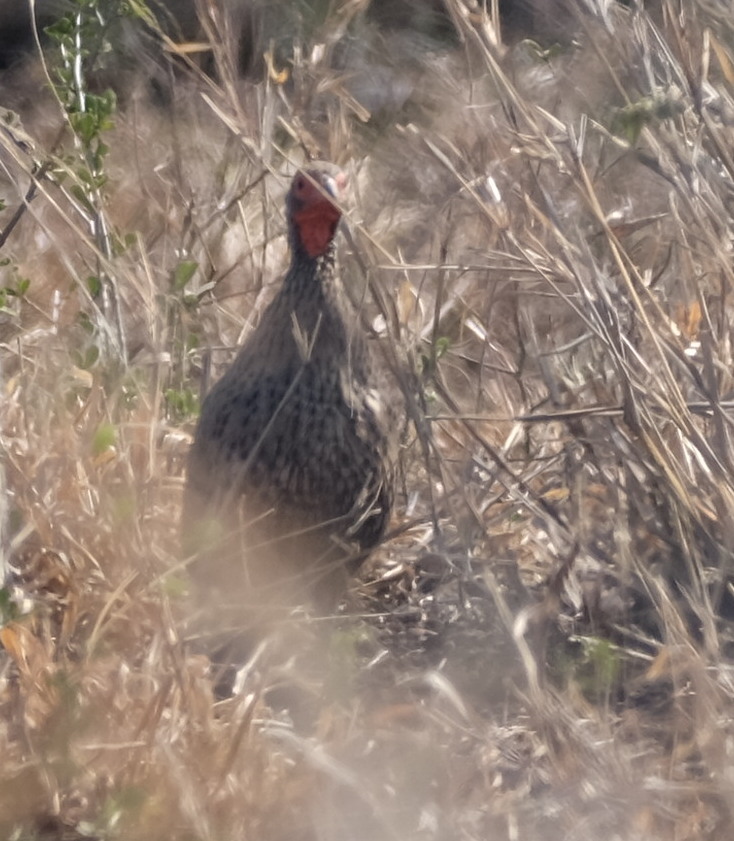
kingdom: Animalia
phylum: Chordata
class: Aves
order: Galliformes
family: Phasianidae
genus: Pternistis
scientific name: Pternistis swainsonii
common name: Swainson's spurfowl
